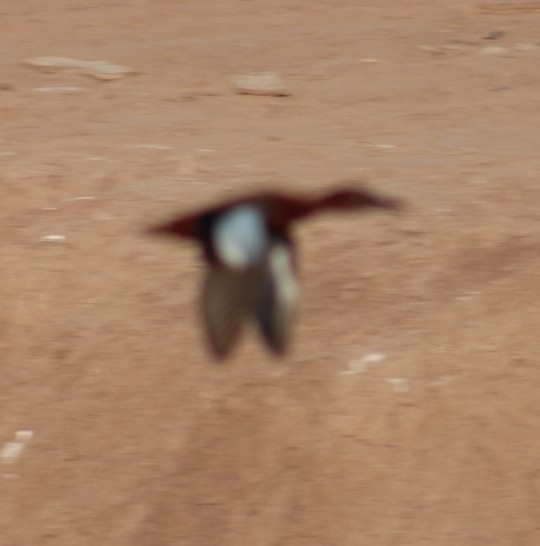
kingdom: Animalia
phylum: Chordata
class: Aves
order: Anseriformes
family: Anatidae
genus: Spatula
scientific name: Spatula cyanoptera
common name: Cinnamon teal
